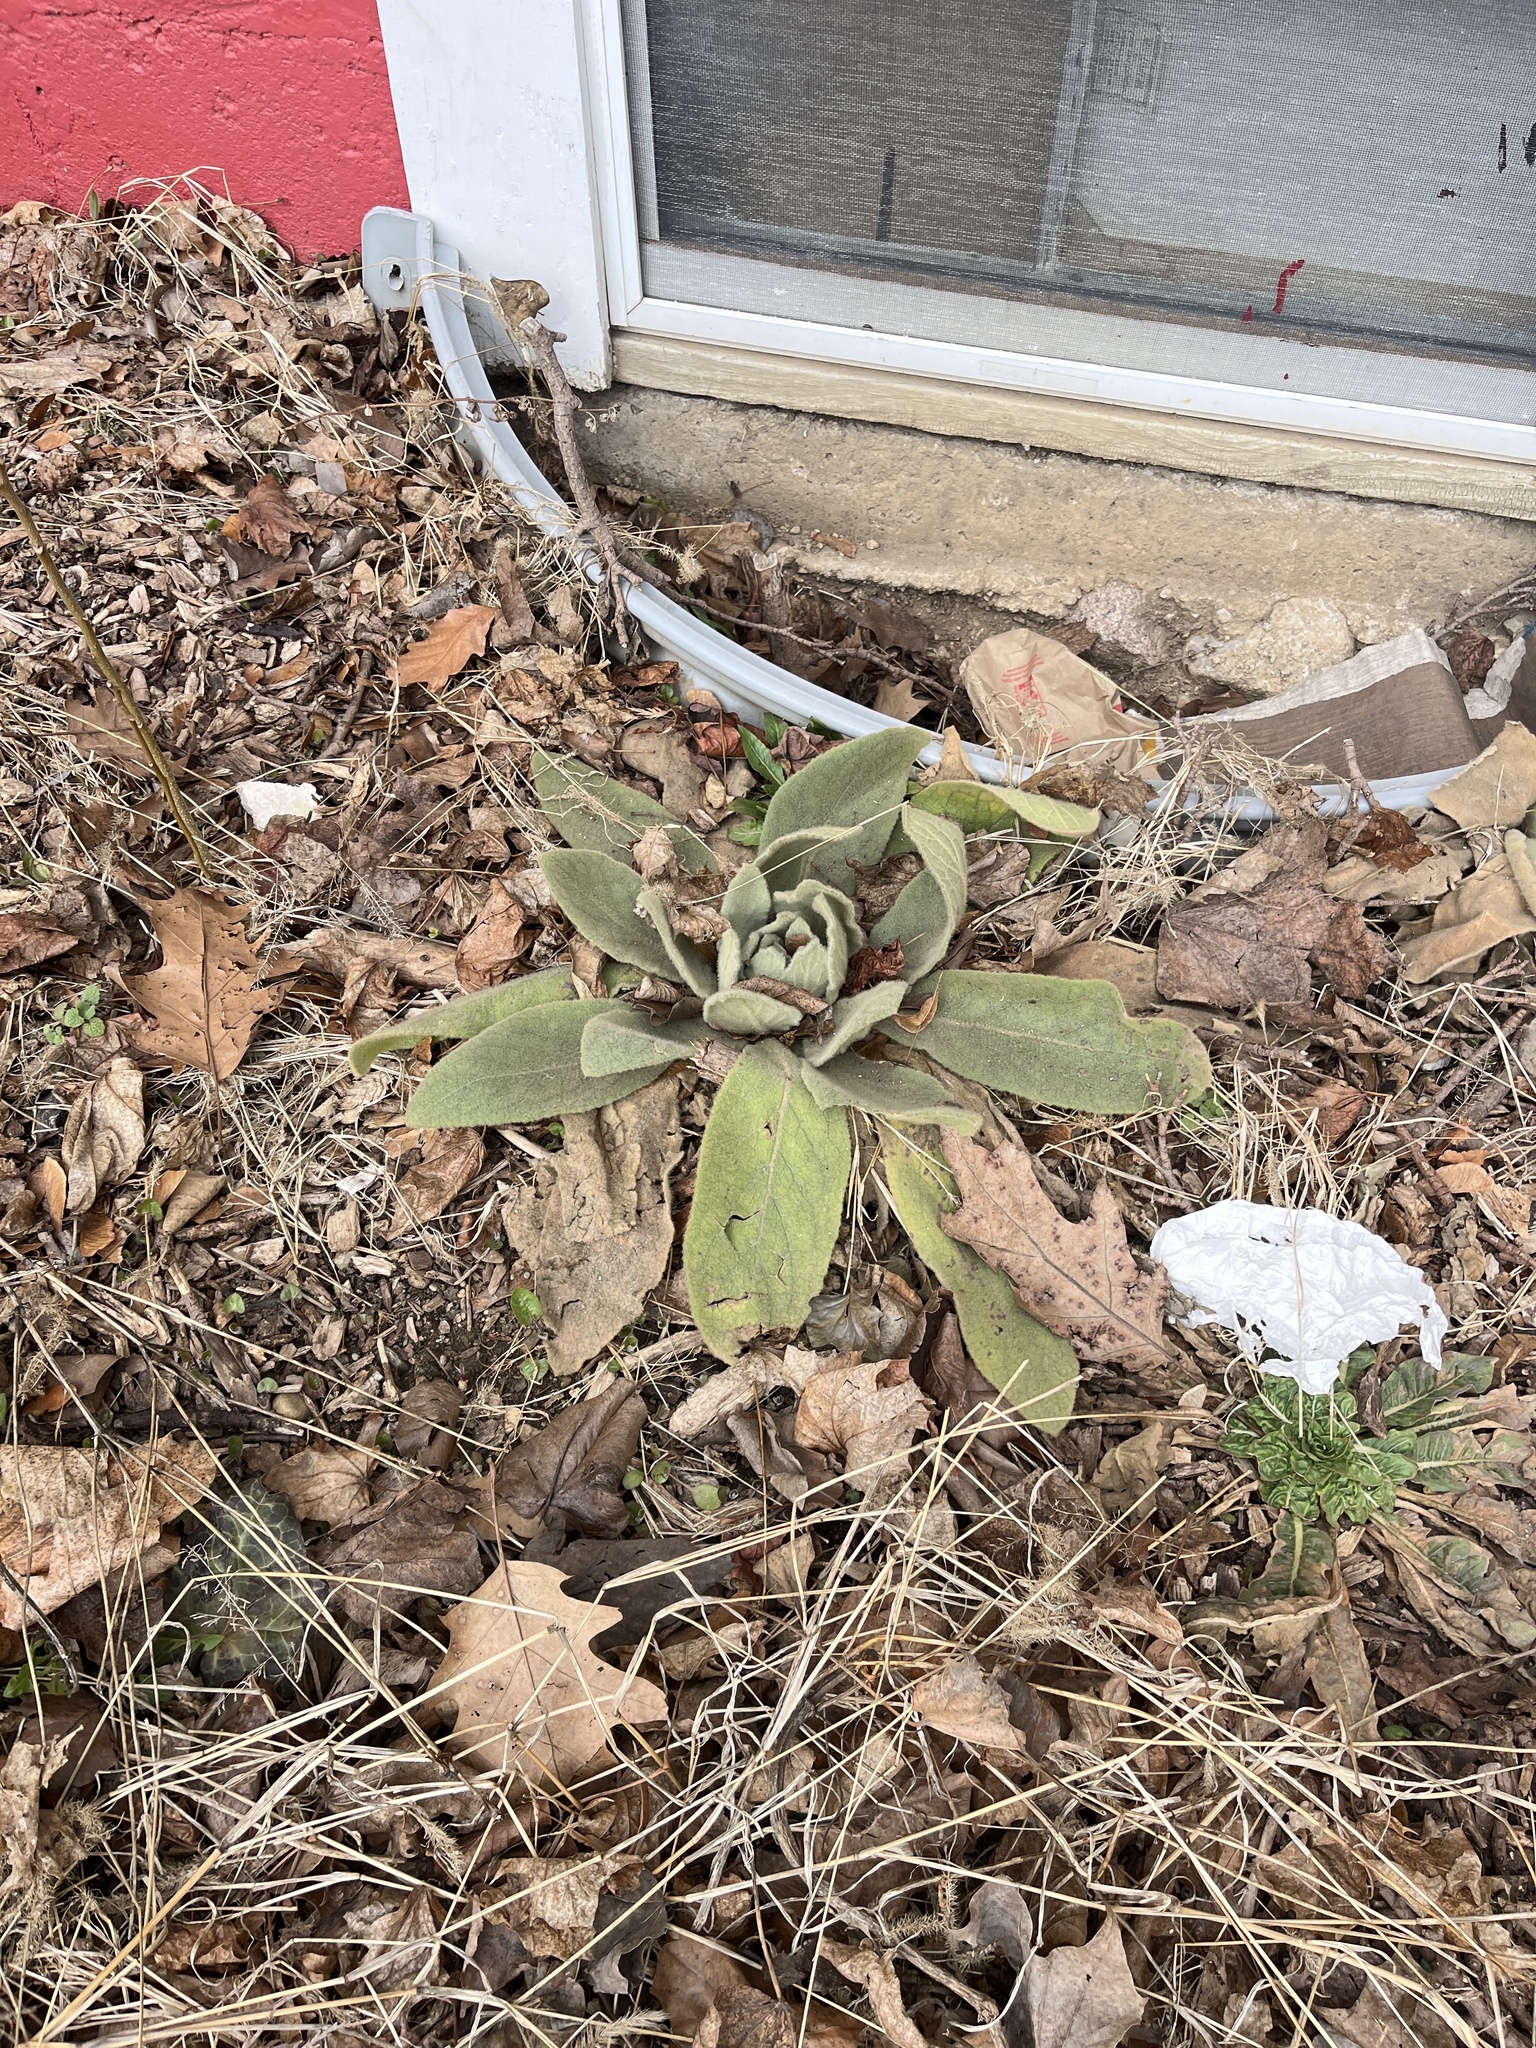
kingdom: Plantae
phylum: Tracheophyta
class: Magnoliopsida
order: Lamiales
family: Scrophulariaceae
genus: Verbascum
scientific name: Verbascum thapsus
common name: Common mullein
